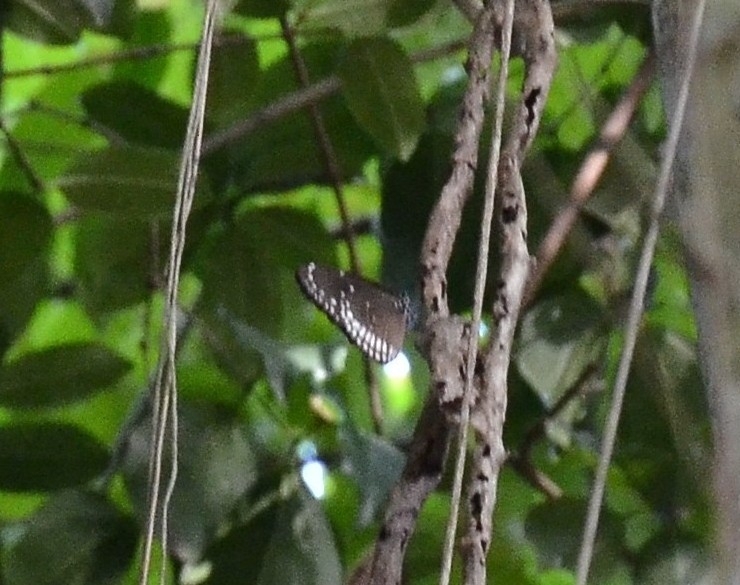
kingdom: Animalia
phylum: Arthropoda
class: Insecta
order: Lepidoptera
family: Nymphalidae
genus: Euploea
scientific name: Euploea core
